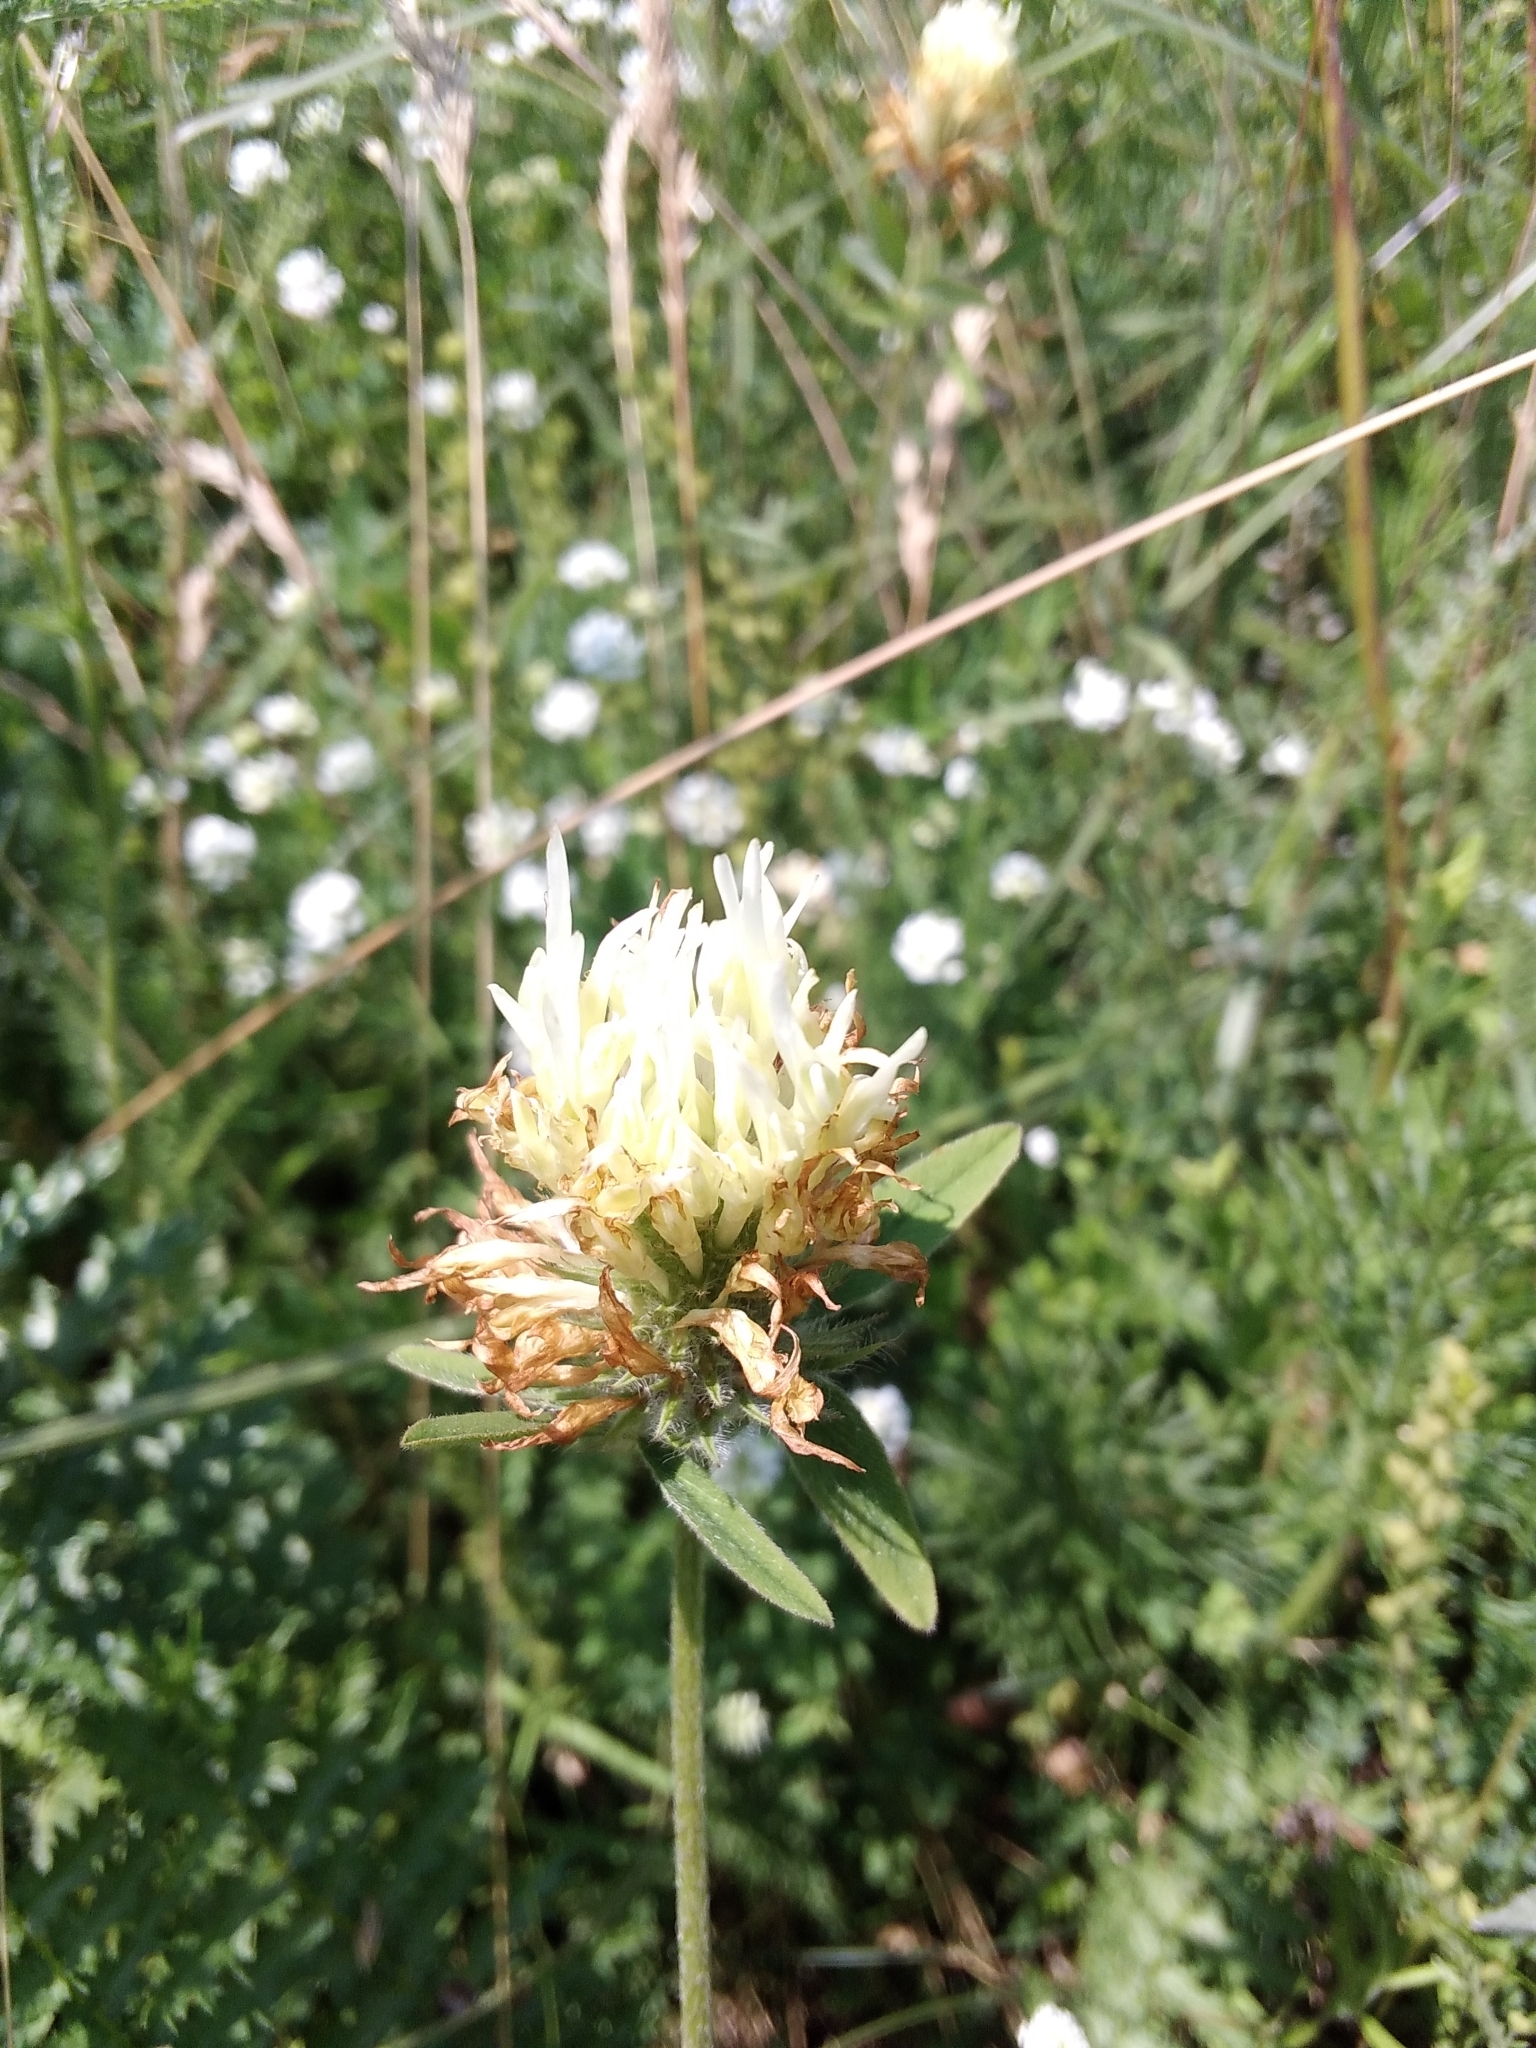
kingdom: Plantae
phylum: Tracheophyta
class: Magnoliopsida
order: Fabales
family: Fabaceae
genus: Trifolium
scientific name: Trifolium ochroleucon
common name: Sulphur clover
